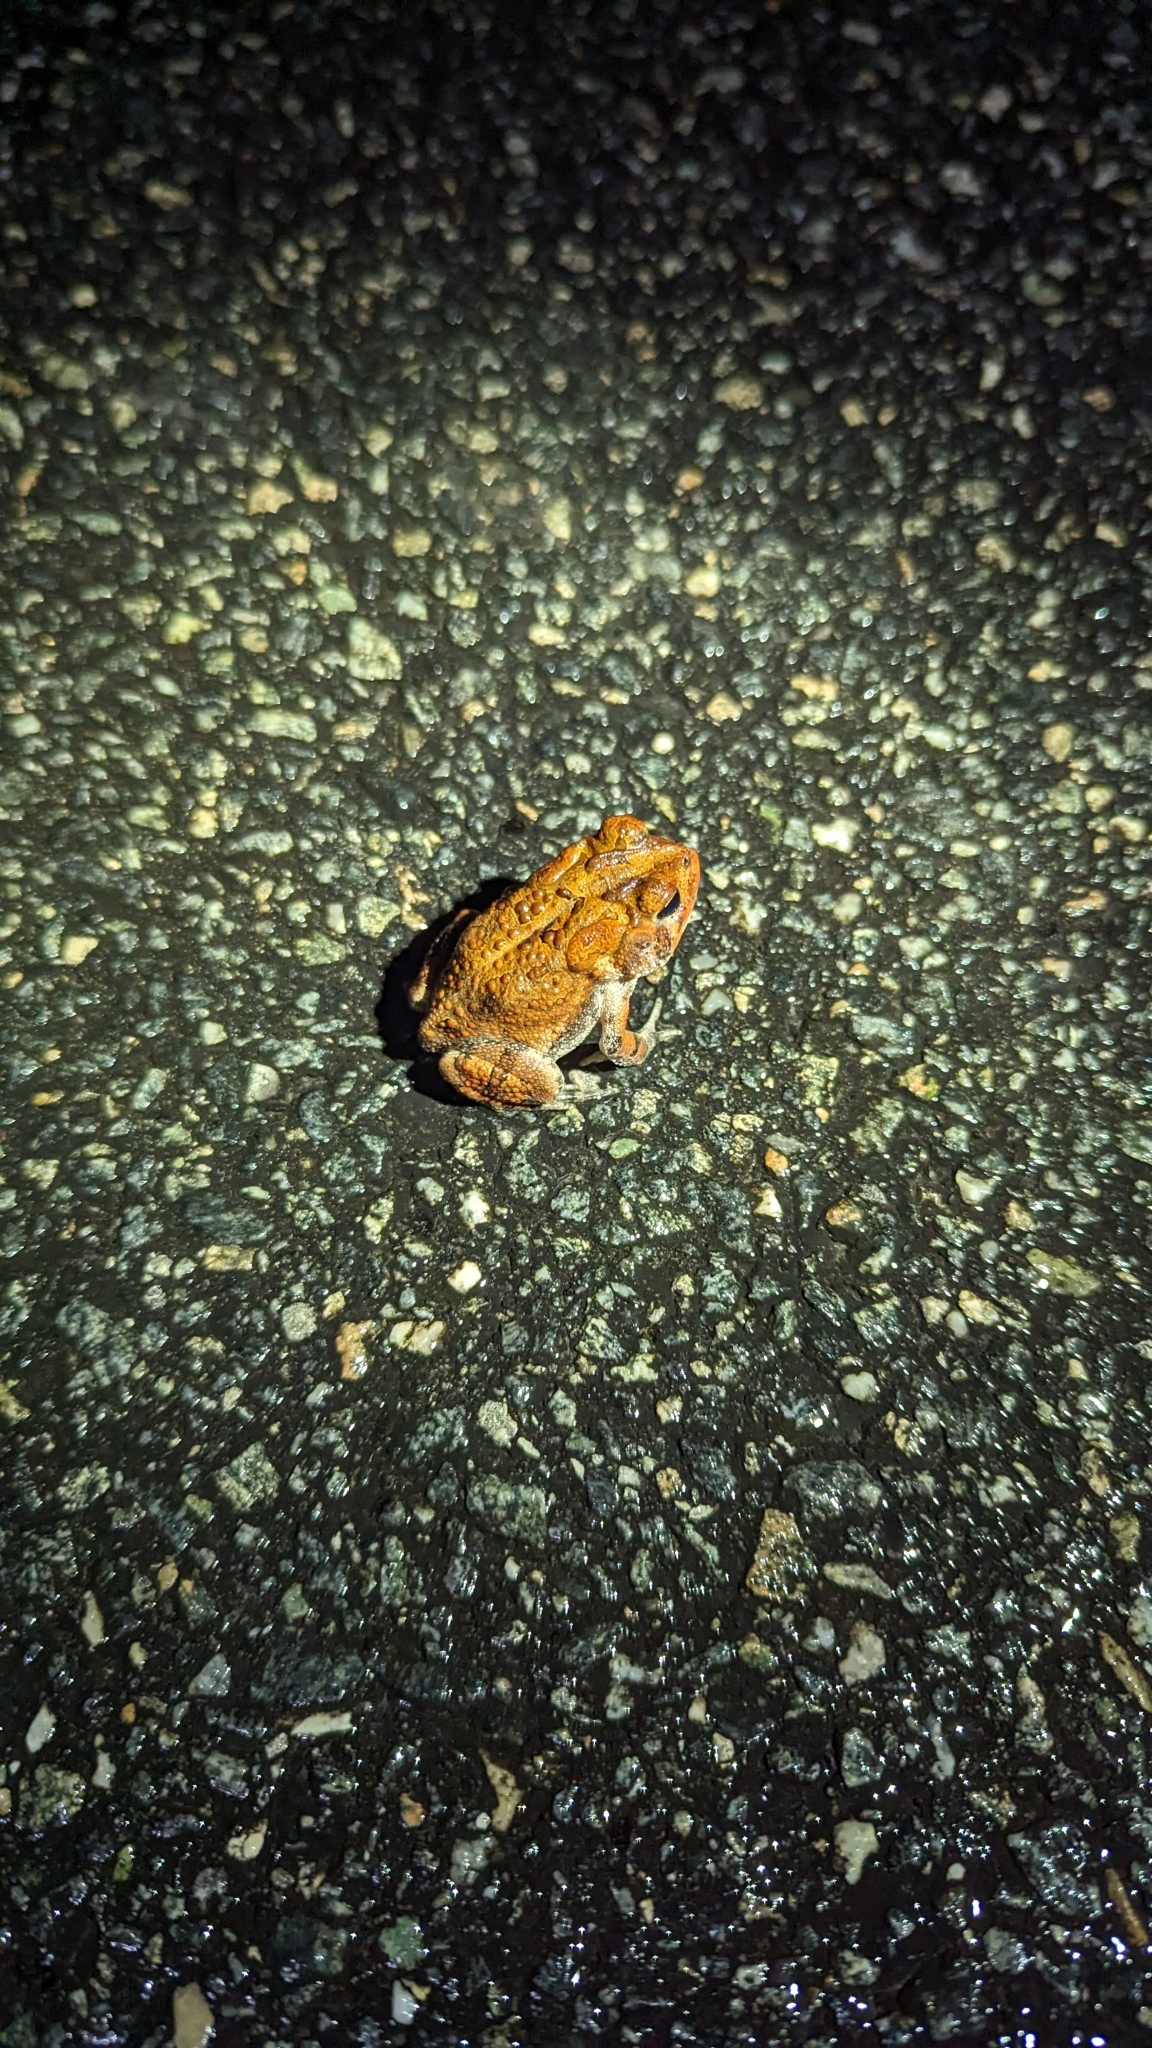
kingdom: Animalia
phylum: Chordata
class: Amphibia
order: Anura
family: Bufonidae
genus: Anaxyrus
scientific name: Anaxyrus terrestris
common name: Southern toad
